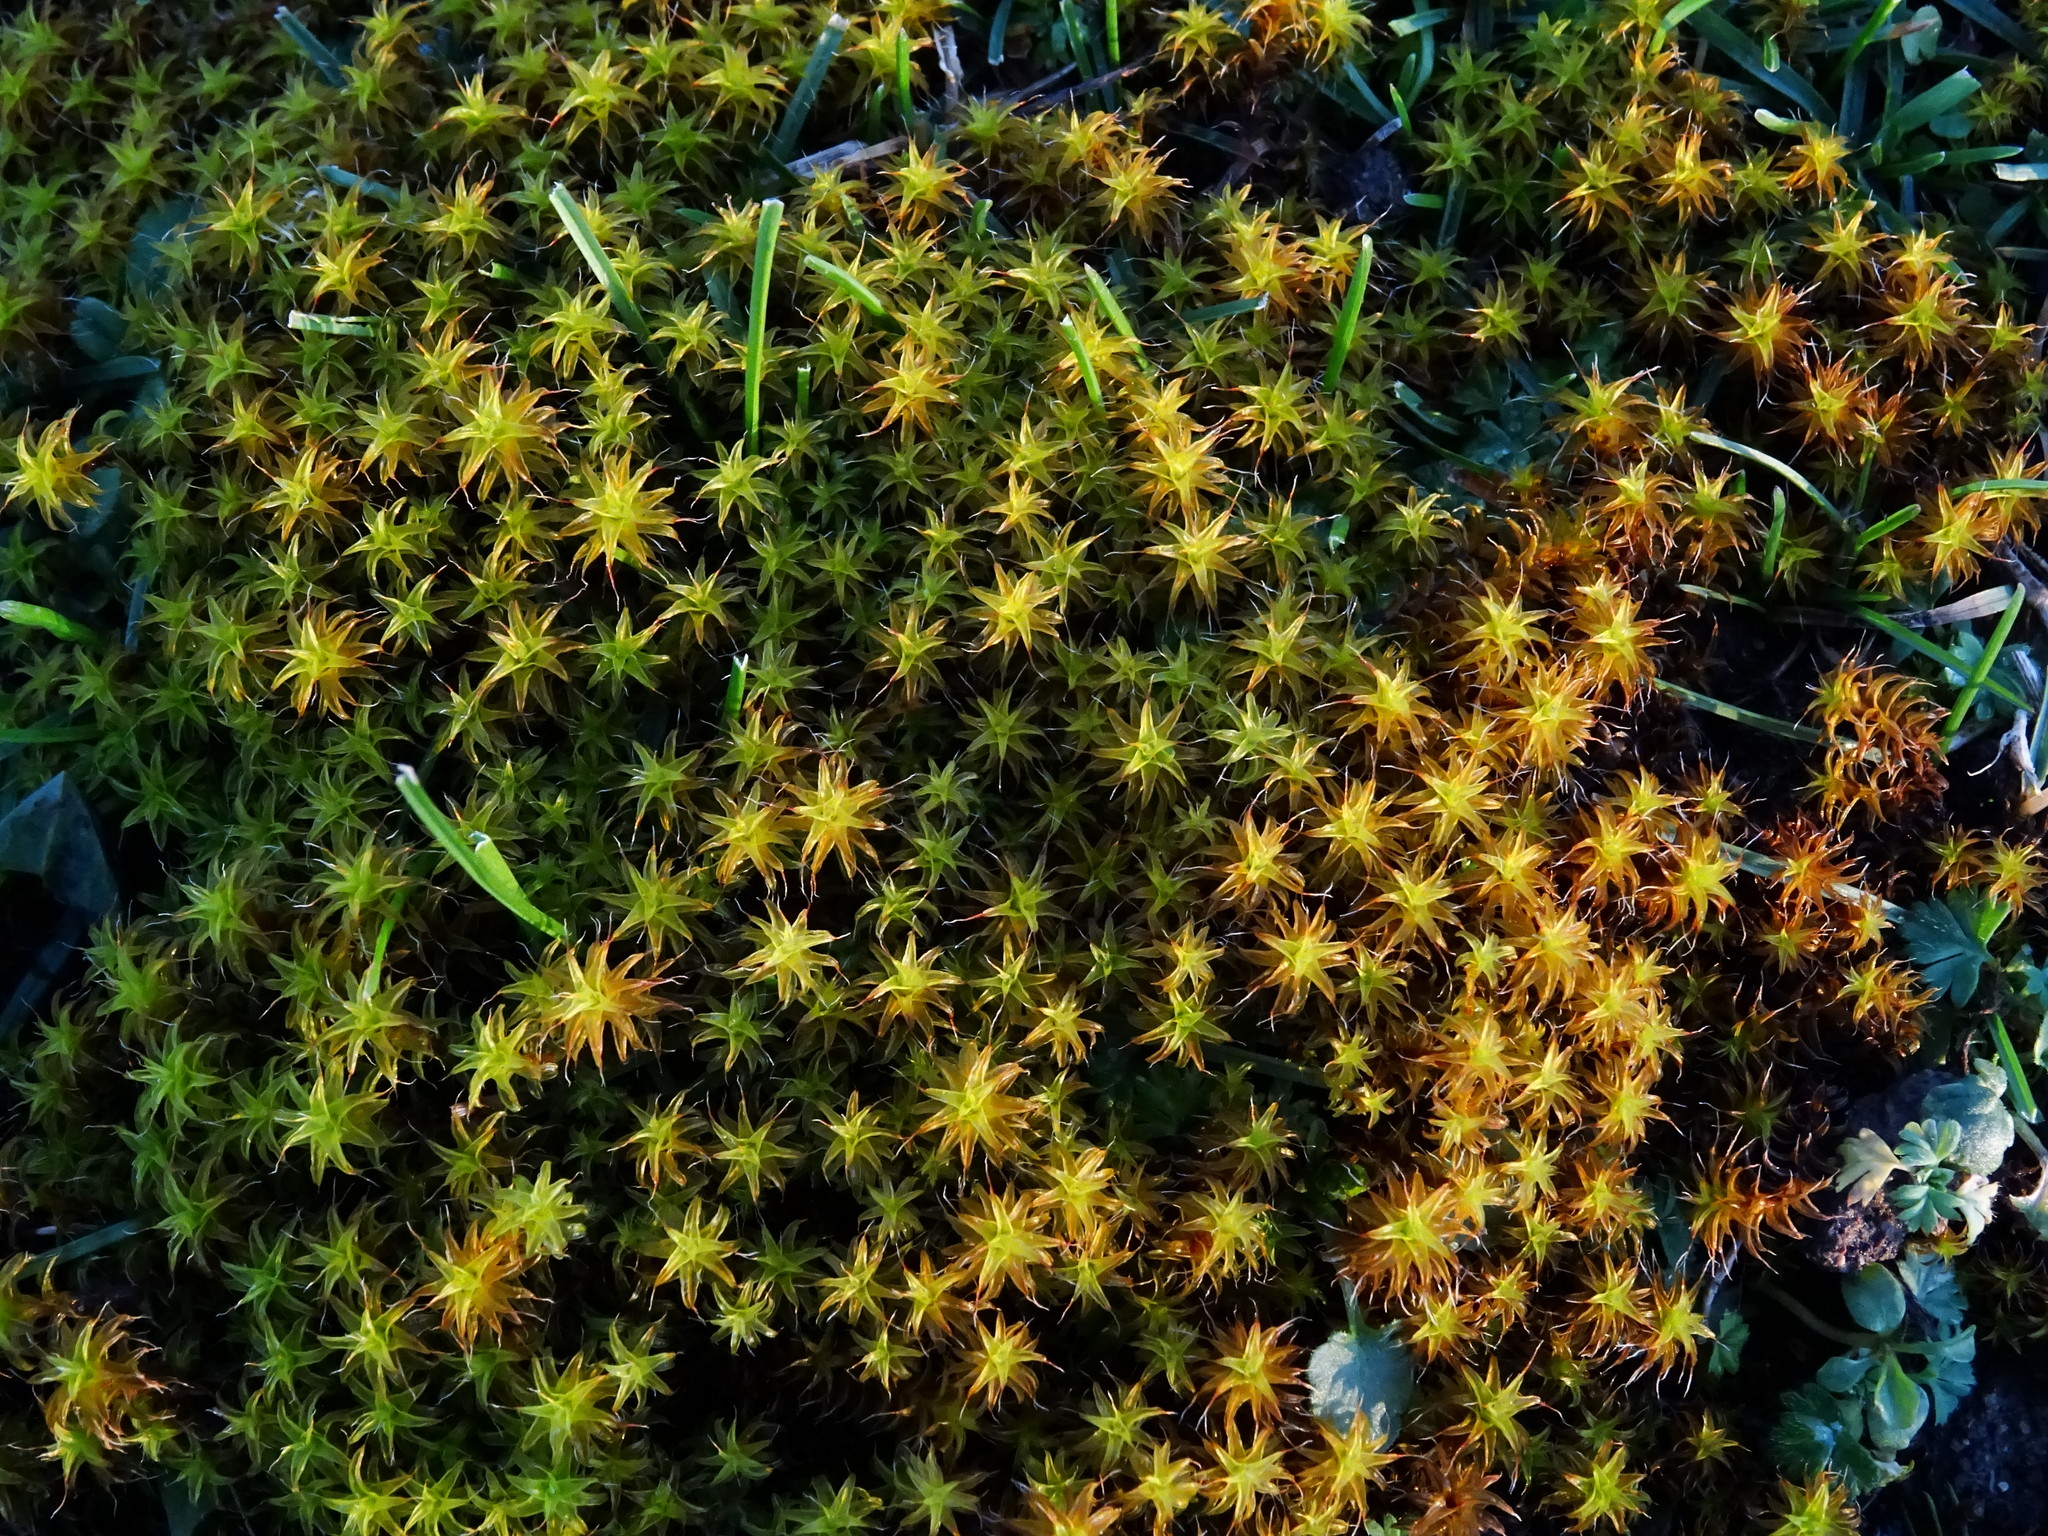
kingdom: Plantae
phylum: Bryophyta
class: Bryopsida
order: Pottiales
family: Pottiaceae
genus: Syntrichia
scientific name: Syntrichia ruralis
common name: Sidewalk screw moss
